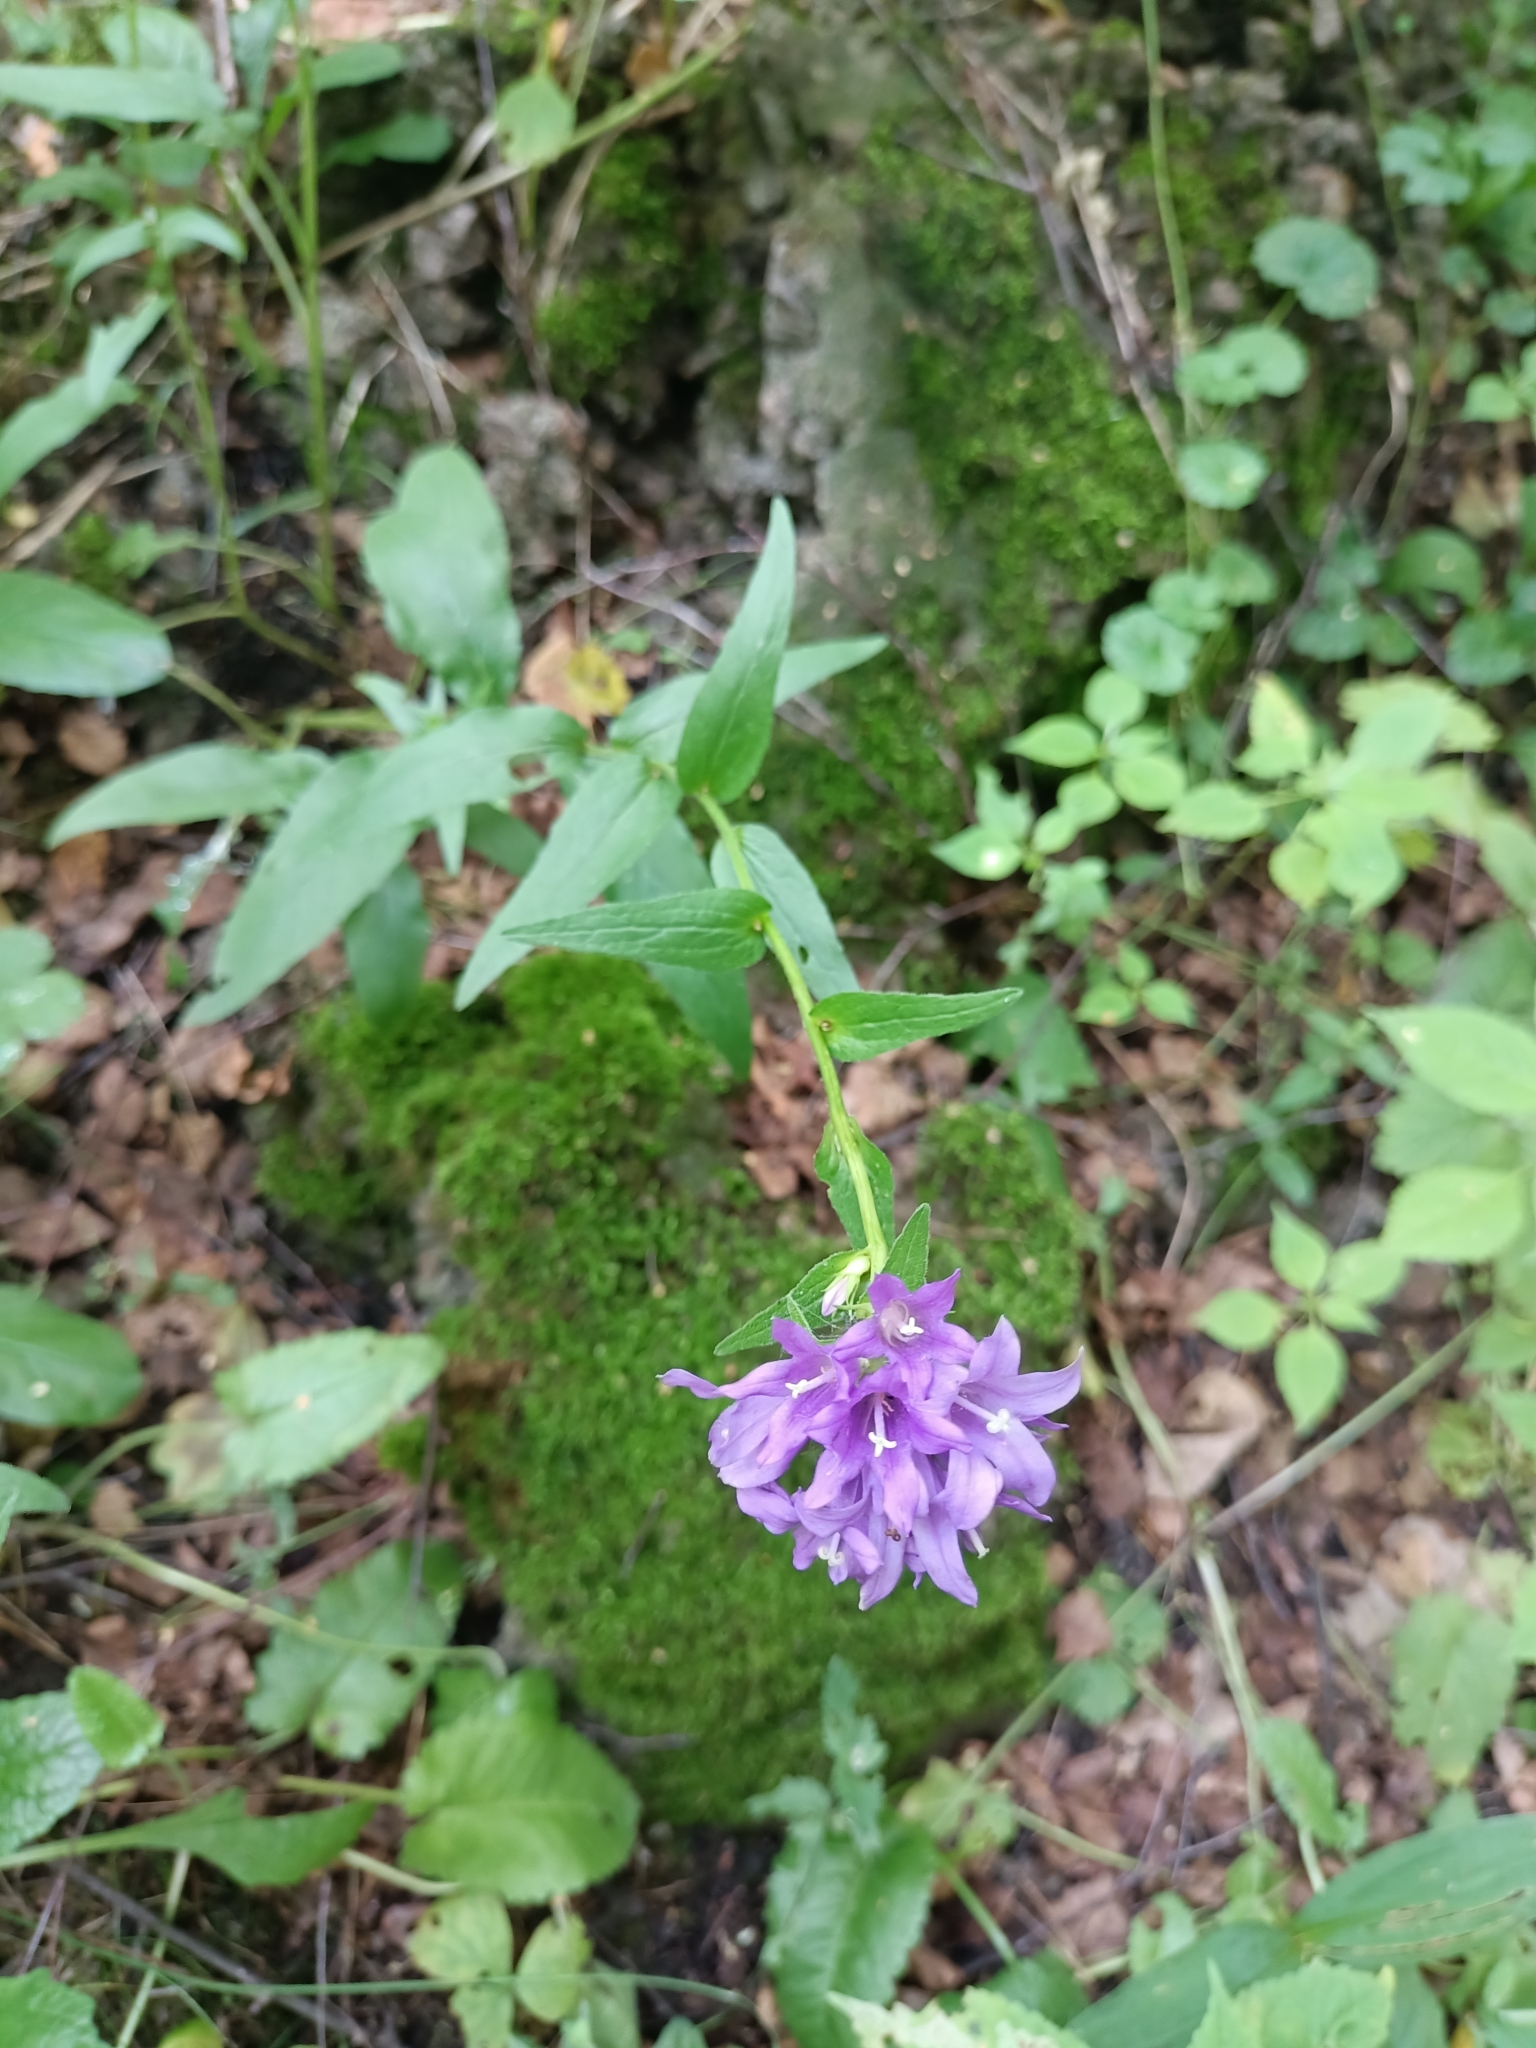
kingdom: Plantae
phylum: Tracheophyta
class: Magnoliopsida
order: Asterales
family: Campanulaceae
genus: Campanula
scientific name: Campanula glomerata
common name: Clustered bellflower
